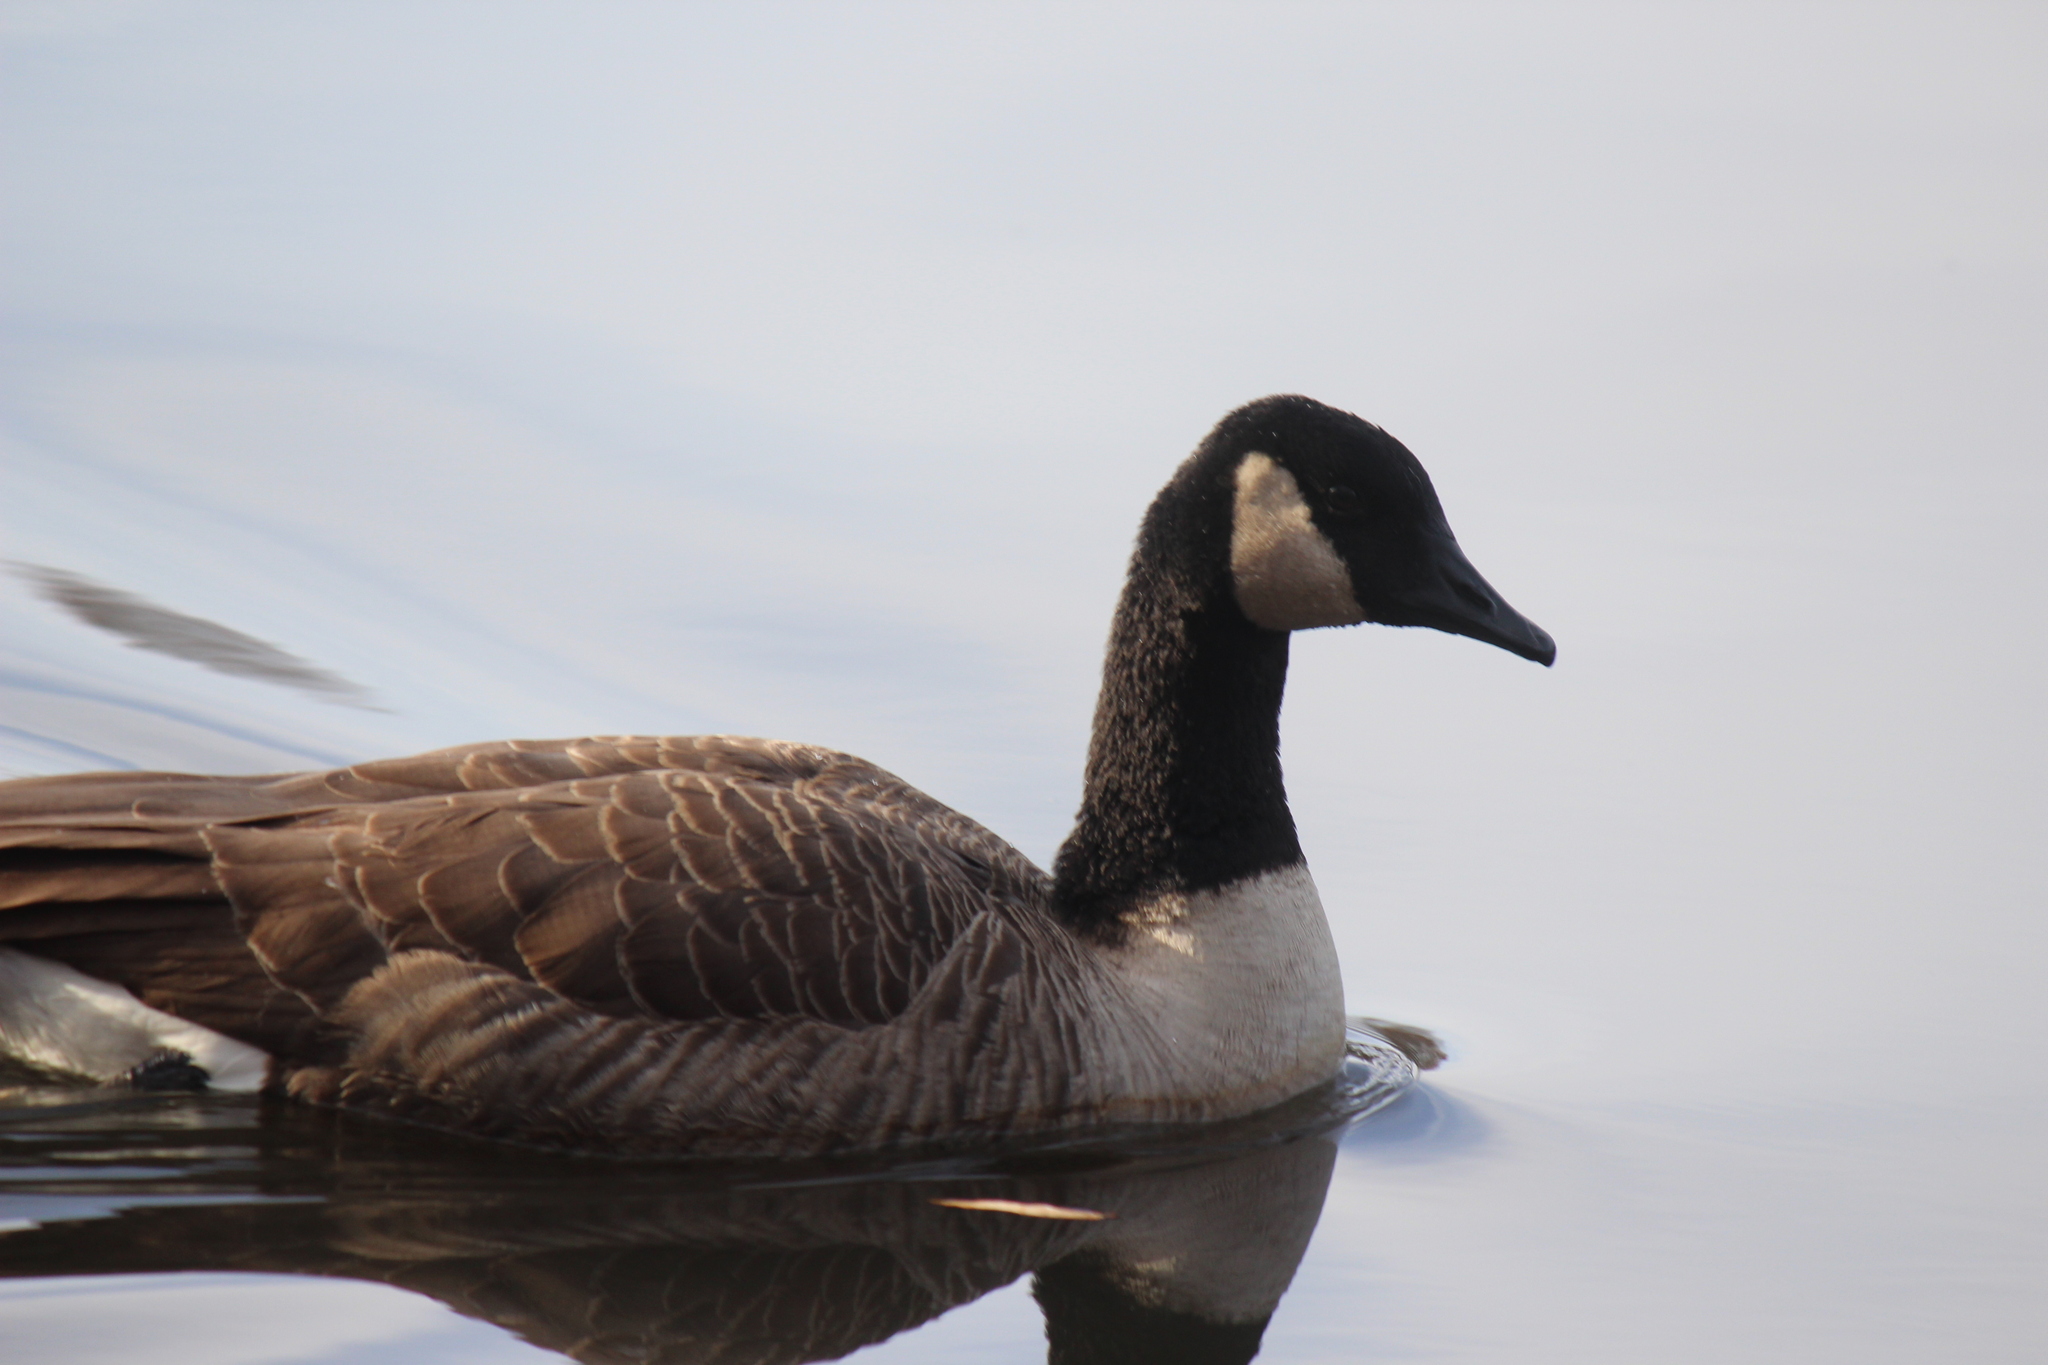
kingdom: Animalia
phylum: Chordata
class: Aves
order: Anseriformes
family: Anatidae
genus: Branta
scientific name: Branta canadensis
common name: Canada goose
